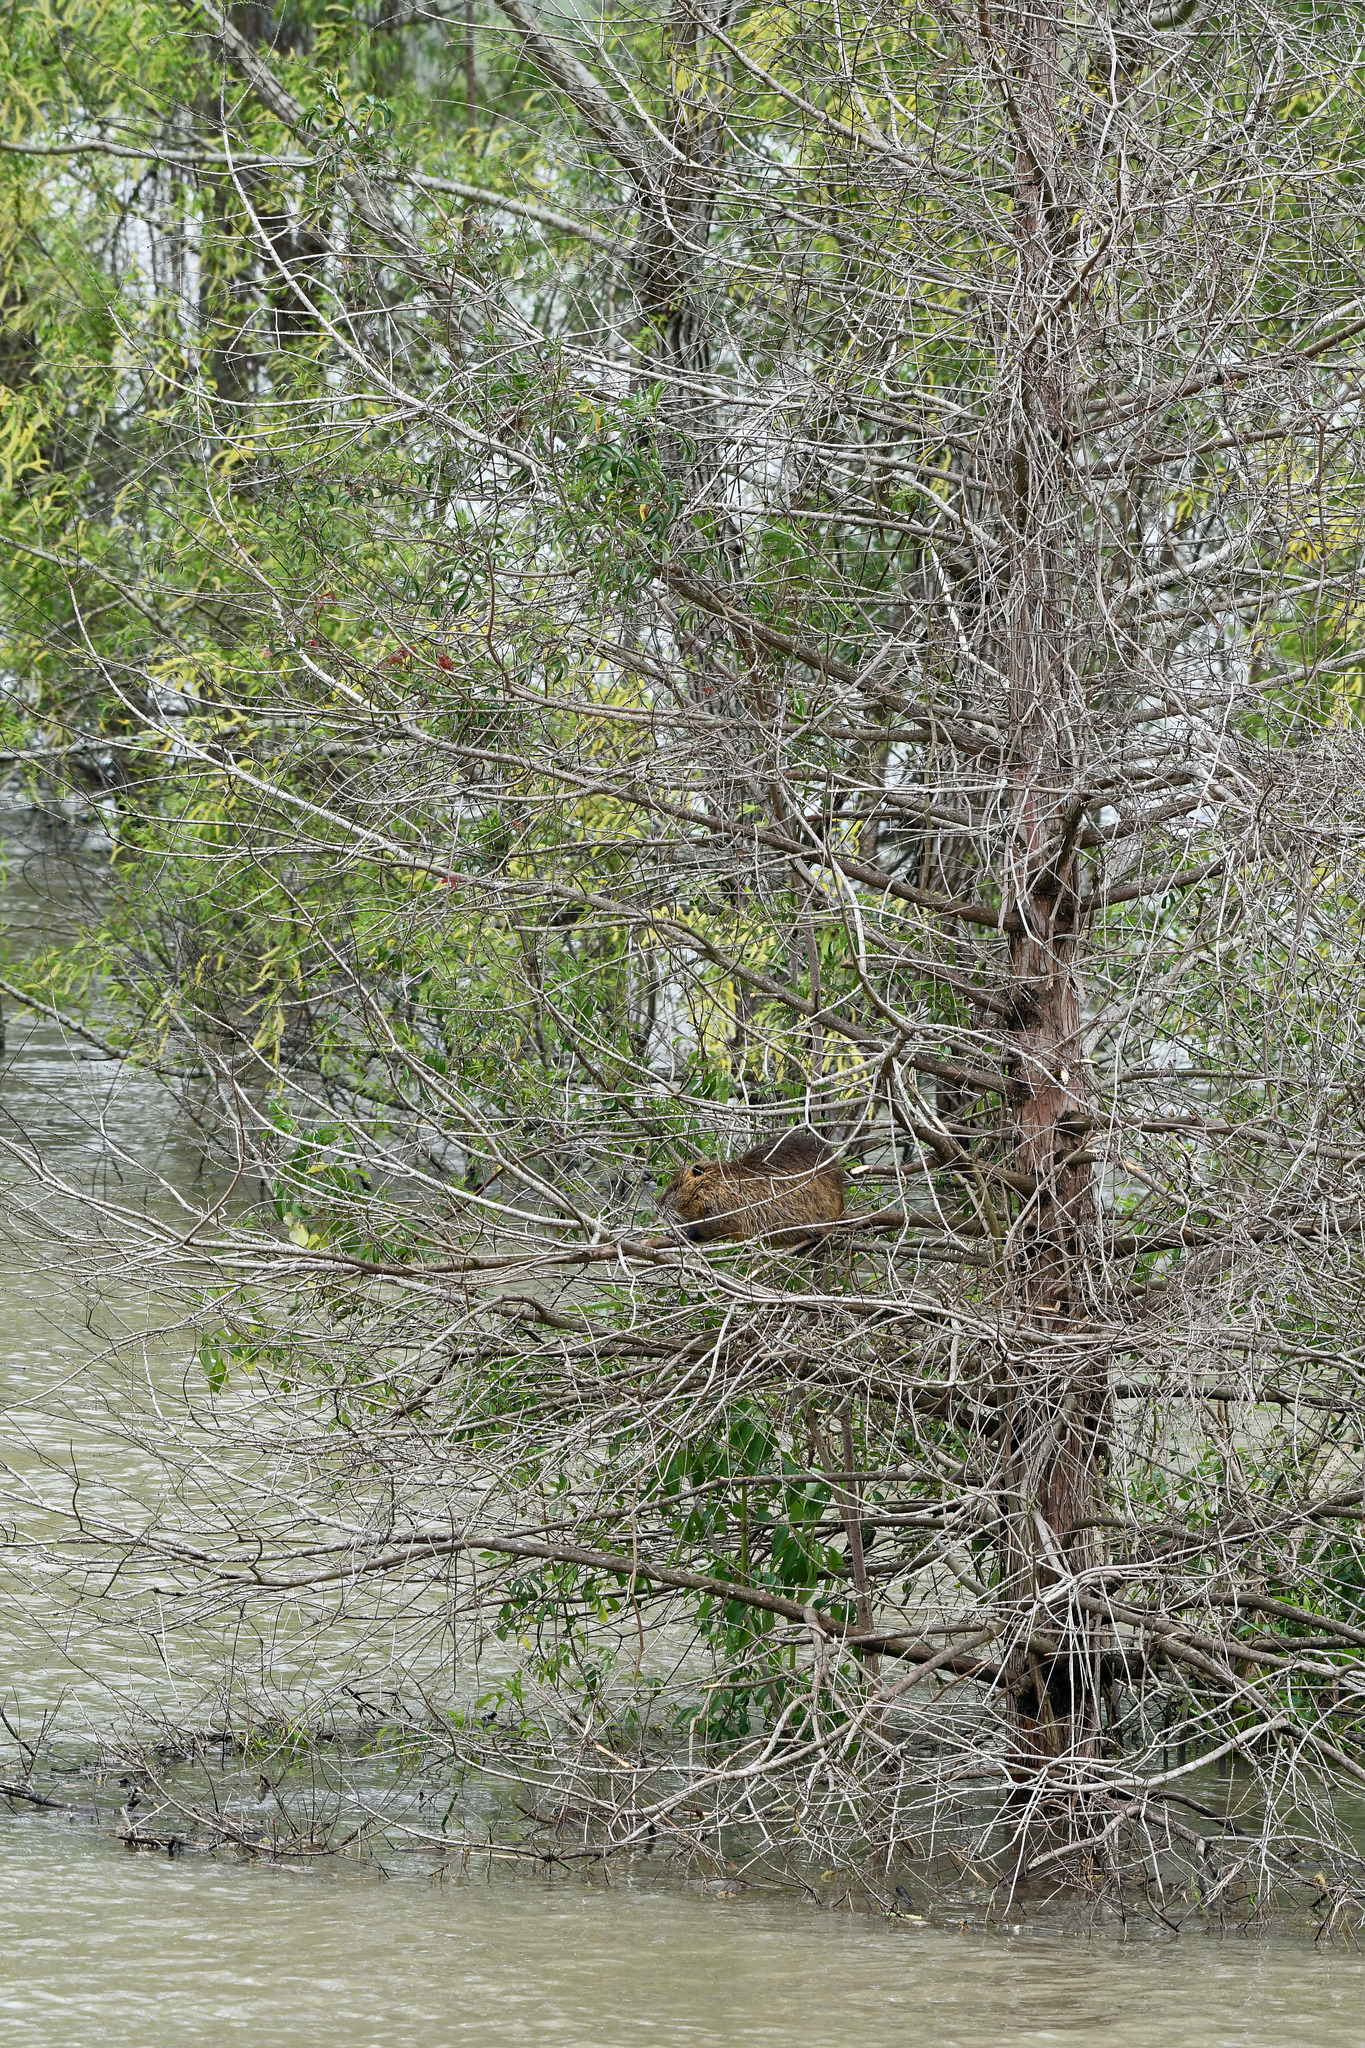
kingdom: Animalia
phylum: Chordata
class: Mammalia
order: Rodentia
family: Myocastoridae
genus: Myocastor
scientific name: Myocastor coypus
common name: Coypu
